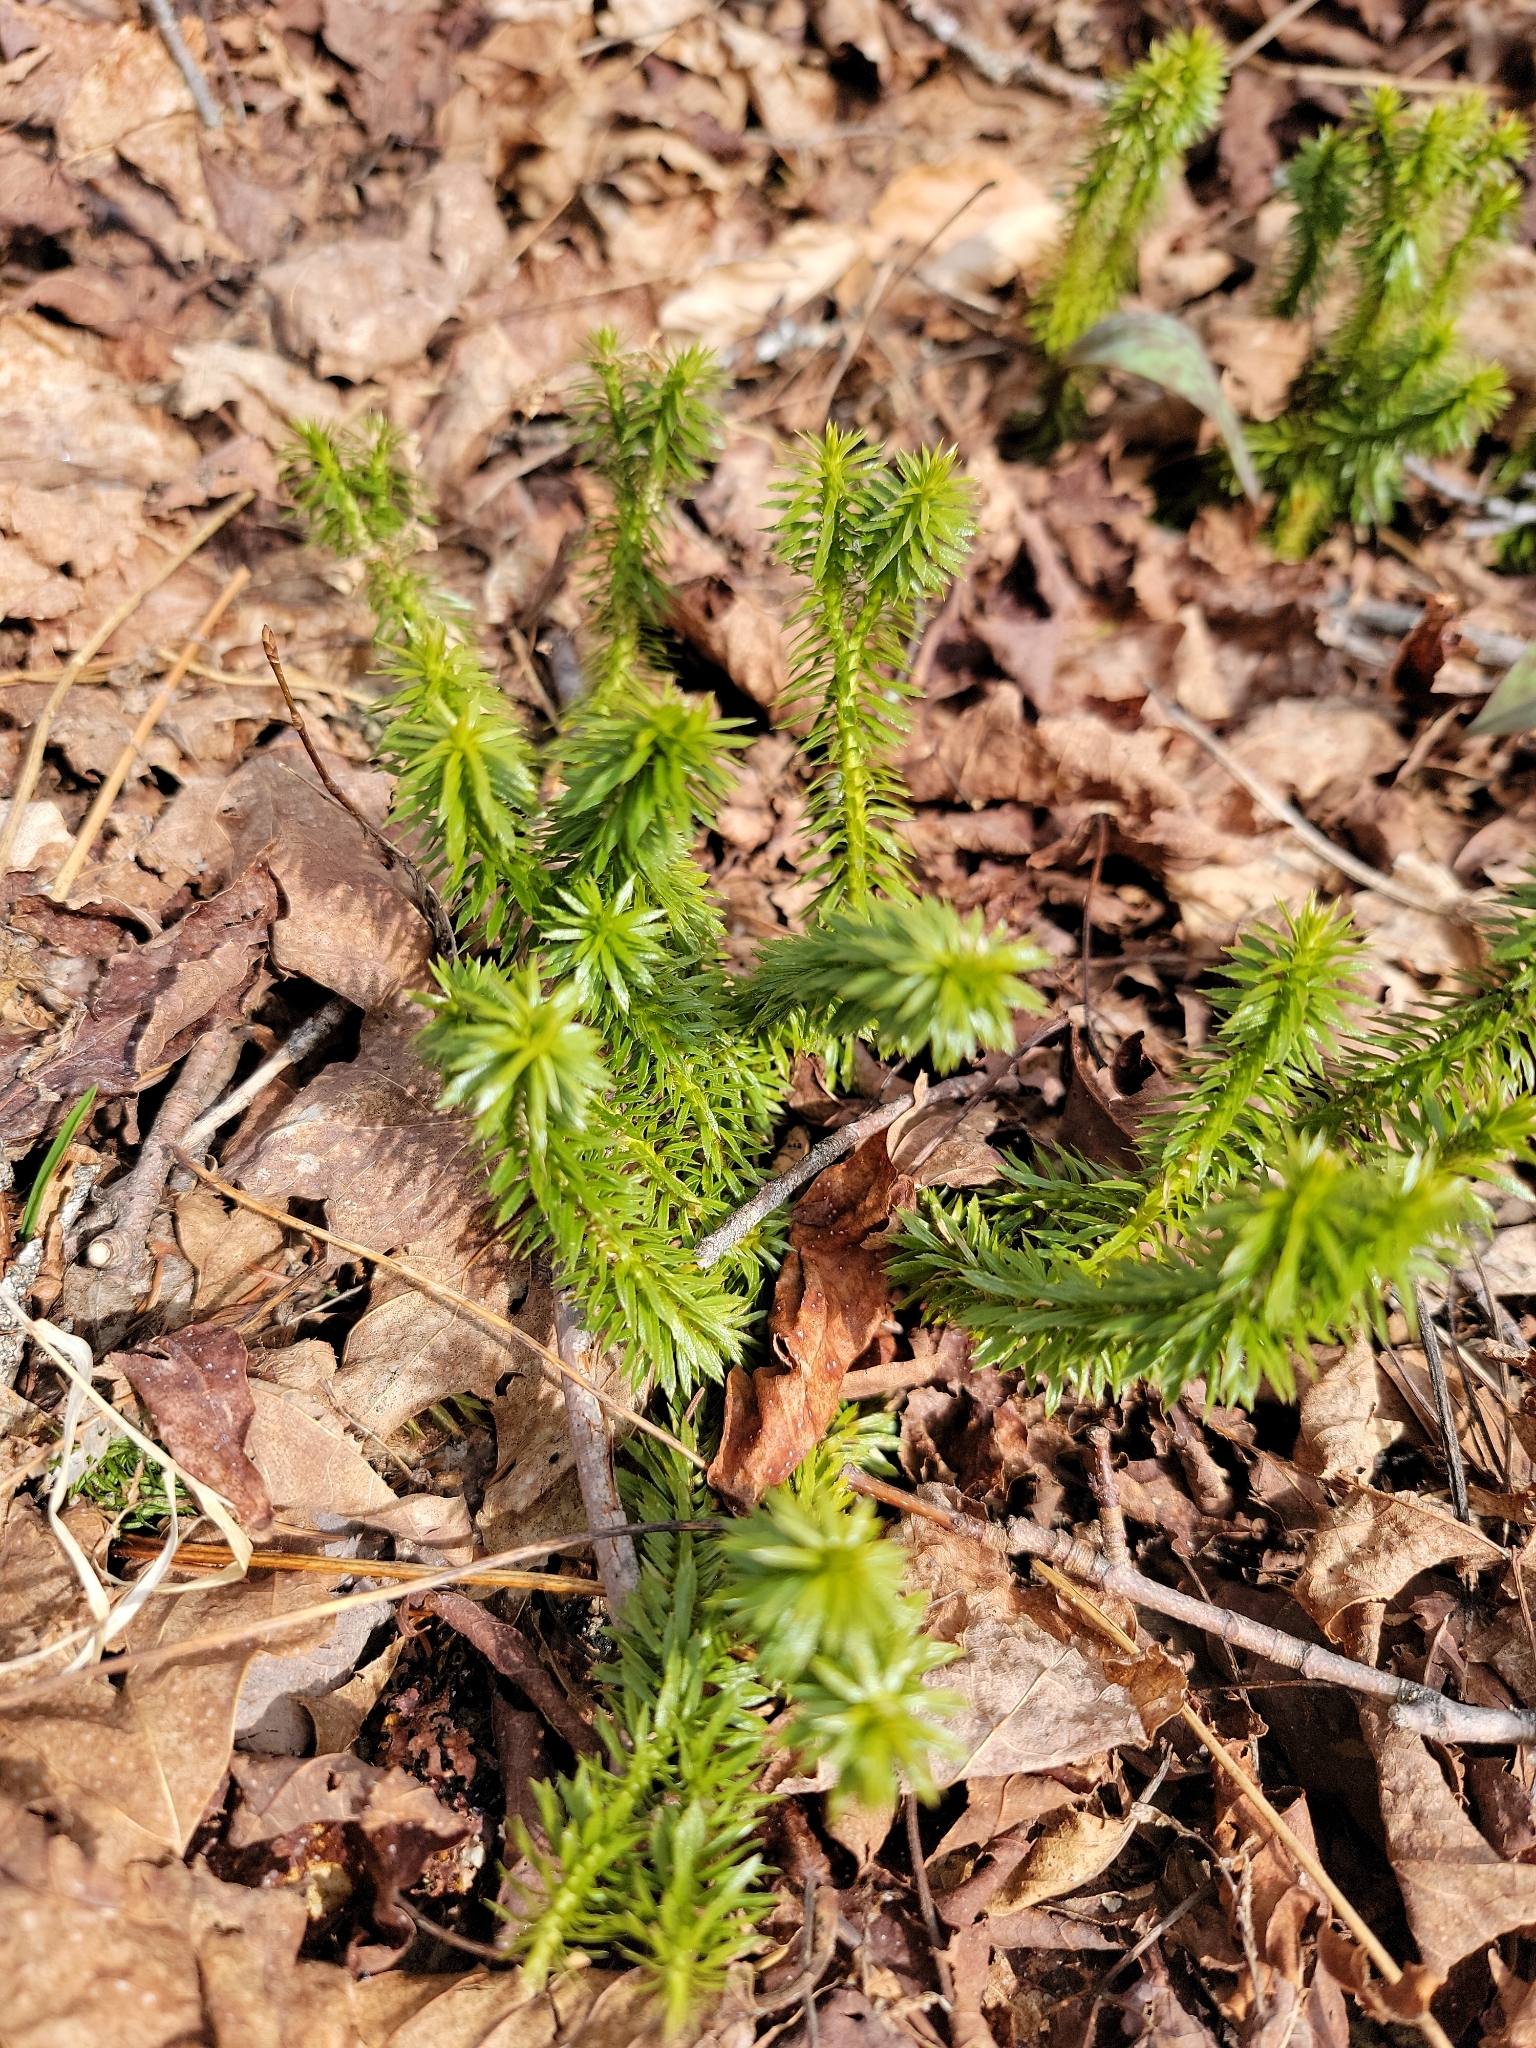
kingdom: Plantae
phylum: Tracheophyta
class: Lycopodiopsida
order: Lycopodiales
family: Lycopodiaceae
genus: Huperzia
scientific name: Huperzia lucidula
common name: Shining clubmoss
